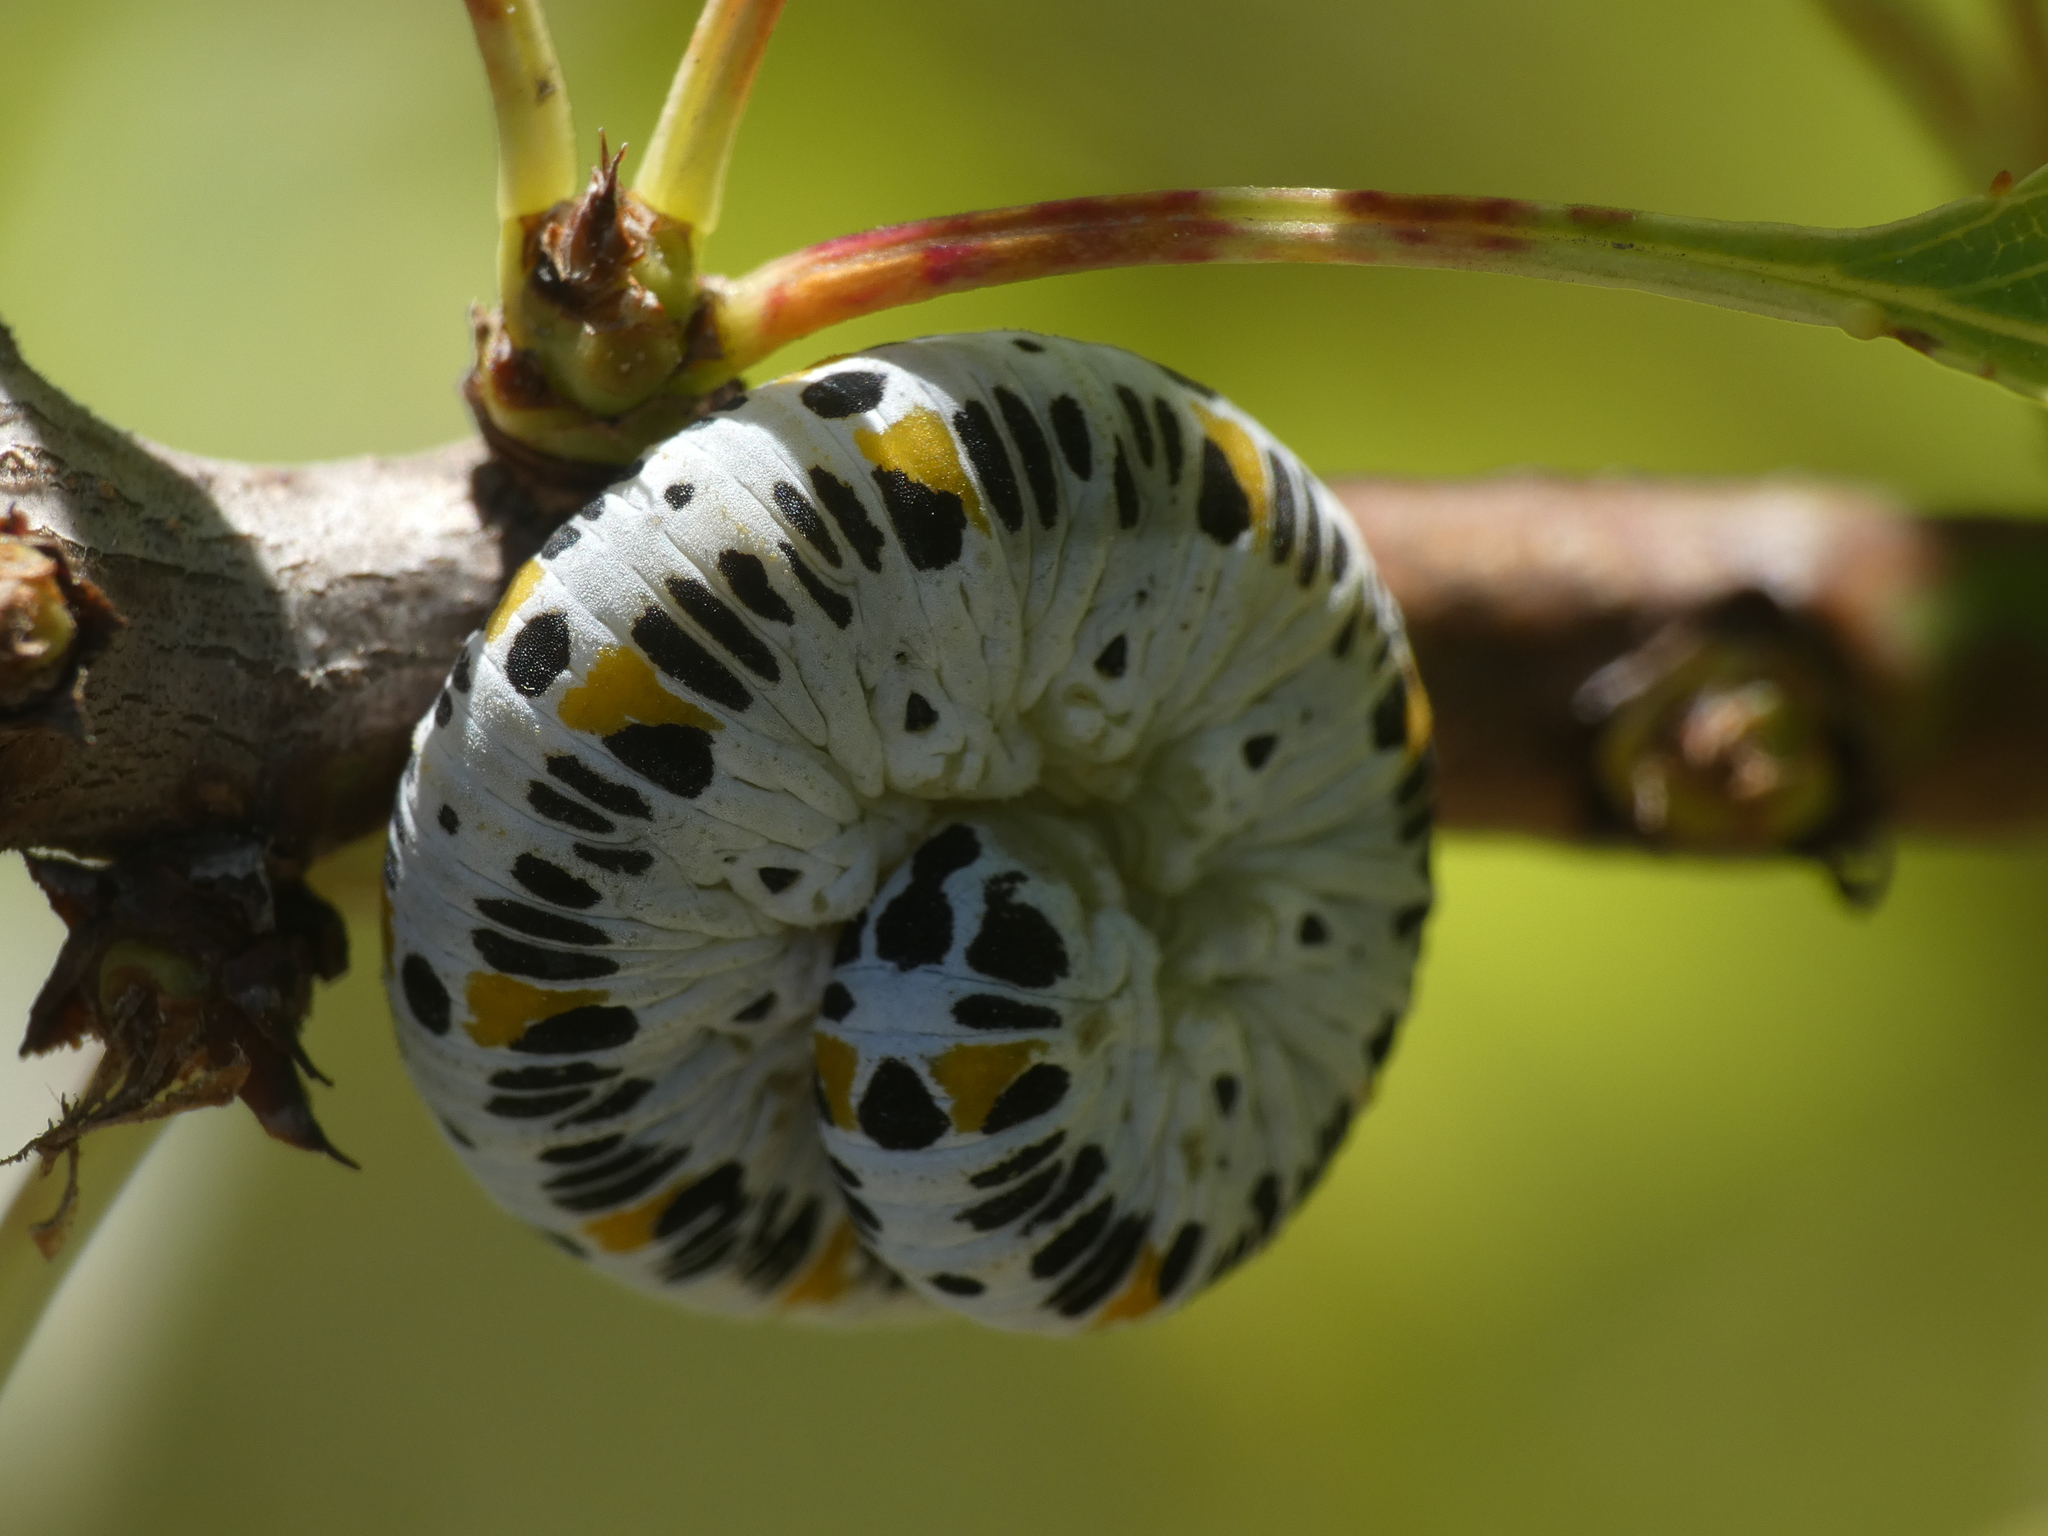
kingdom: Animalia
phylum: Arthropoda
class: Insecta
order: Hymenoptera
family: Cimbicidae
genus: Cimbex
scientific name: Cimbex quadrimaculatus
